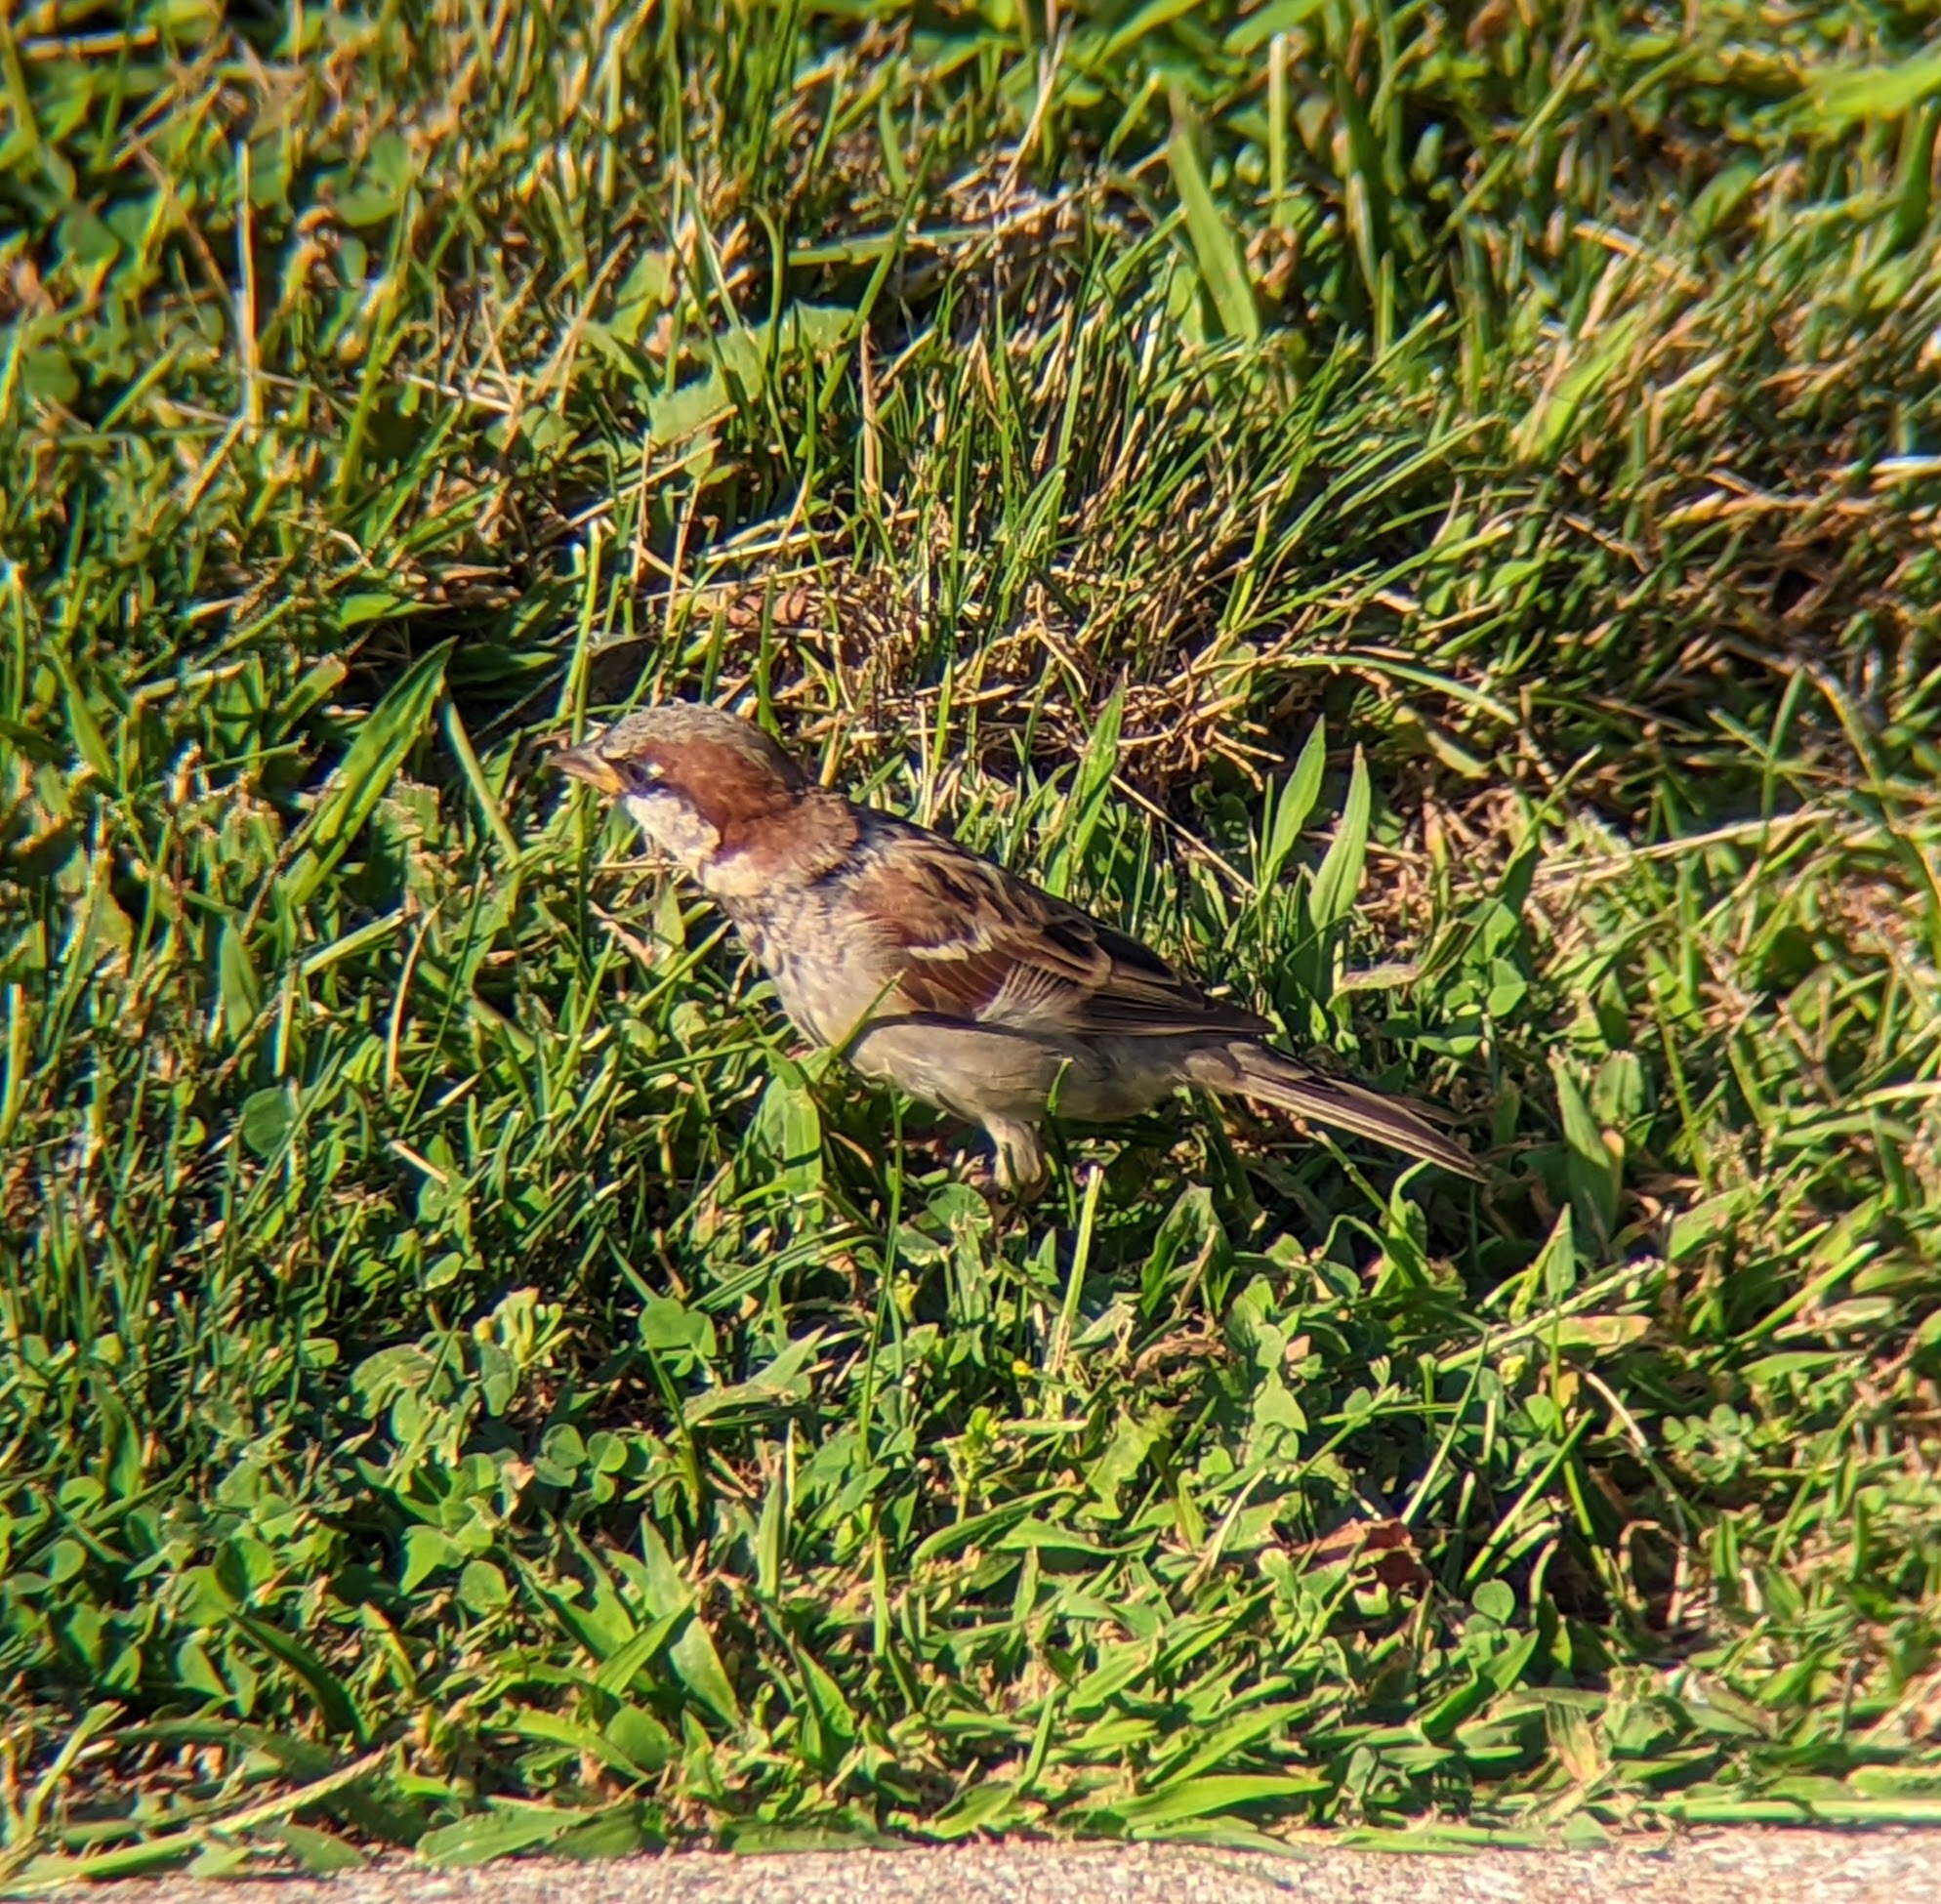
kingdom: Animalia
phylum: Chordata
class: Aves
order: Passeriformes
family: Passeridae
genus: Passer
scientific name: Passer domesticus
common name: House sparrow
